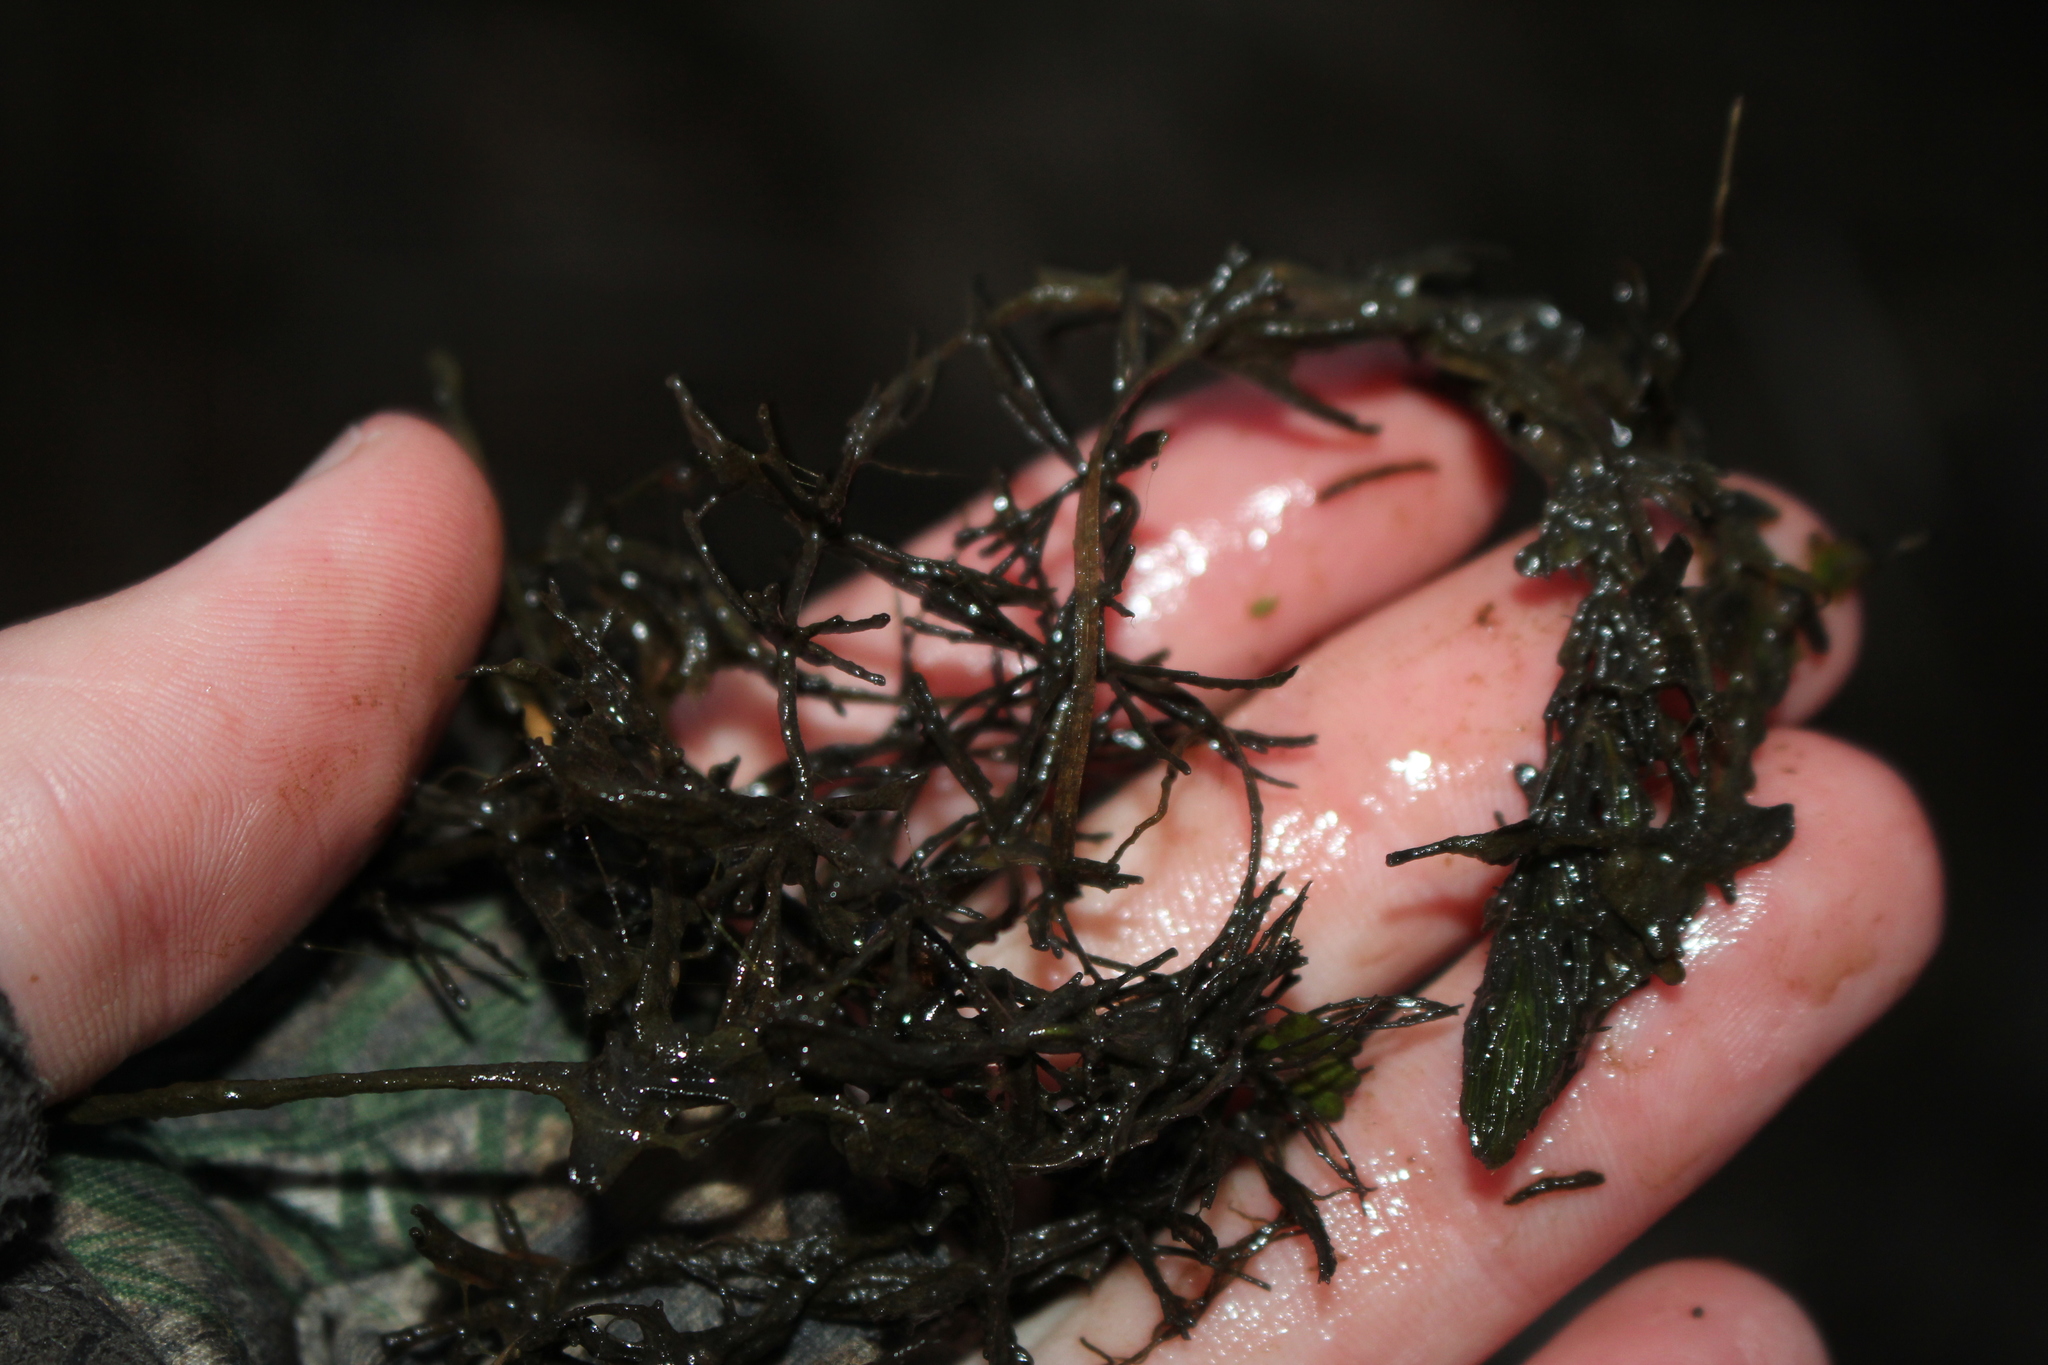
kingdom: Plantae
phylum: Tracheophyta
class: Magnoliopsida
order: Ceratophyllales
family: Ceratophyllaceae
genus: Ceratophyllum
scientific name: Ceratophyllum demersum
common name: Rigid hornwort
